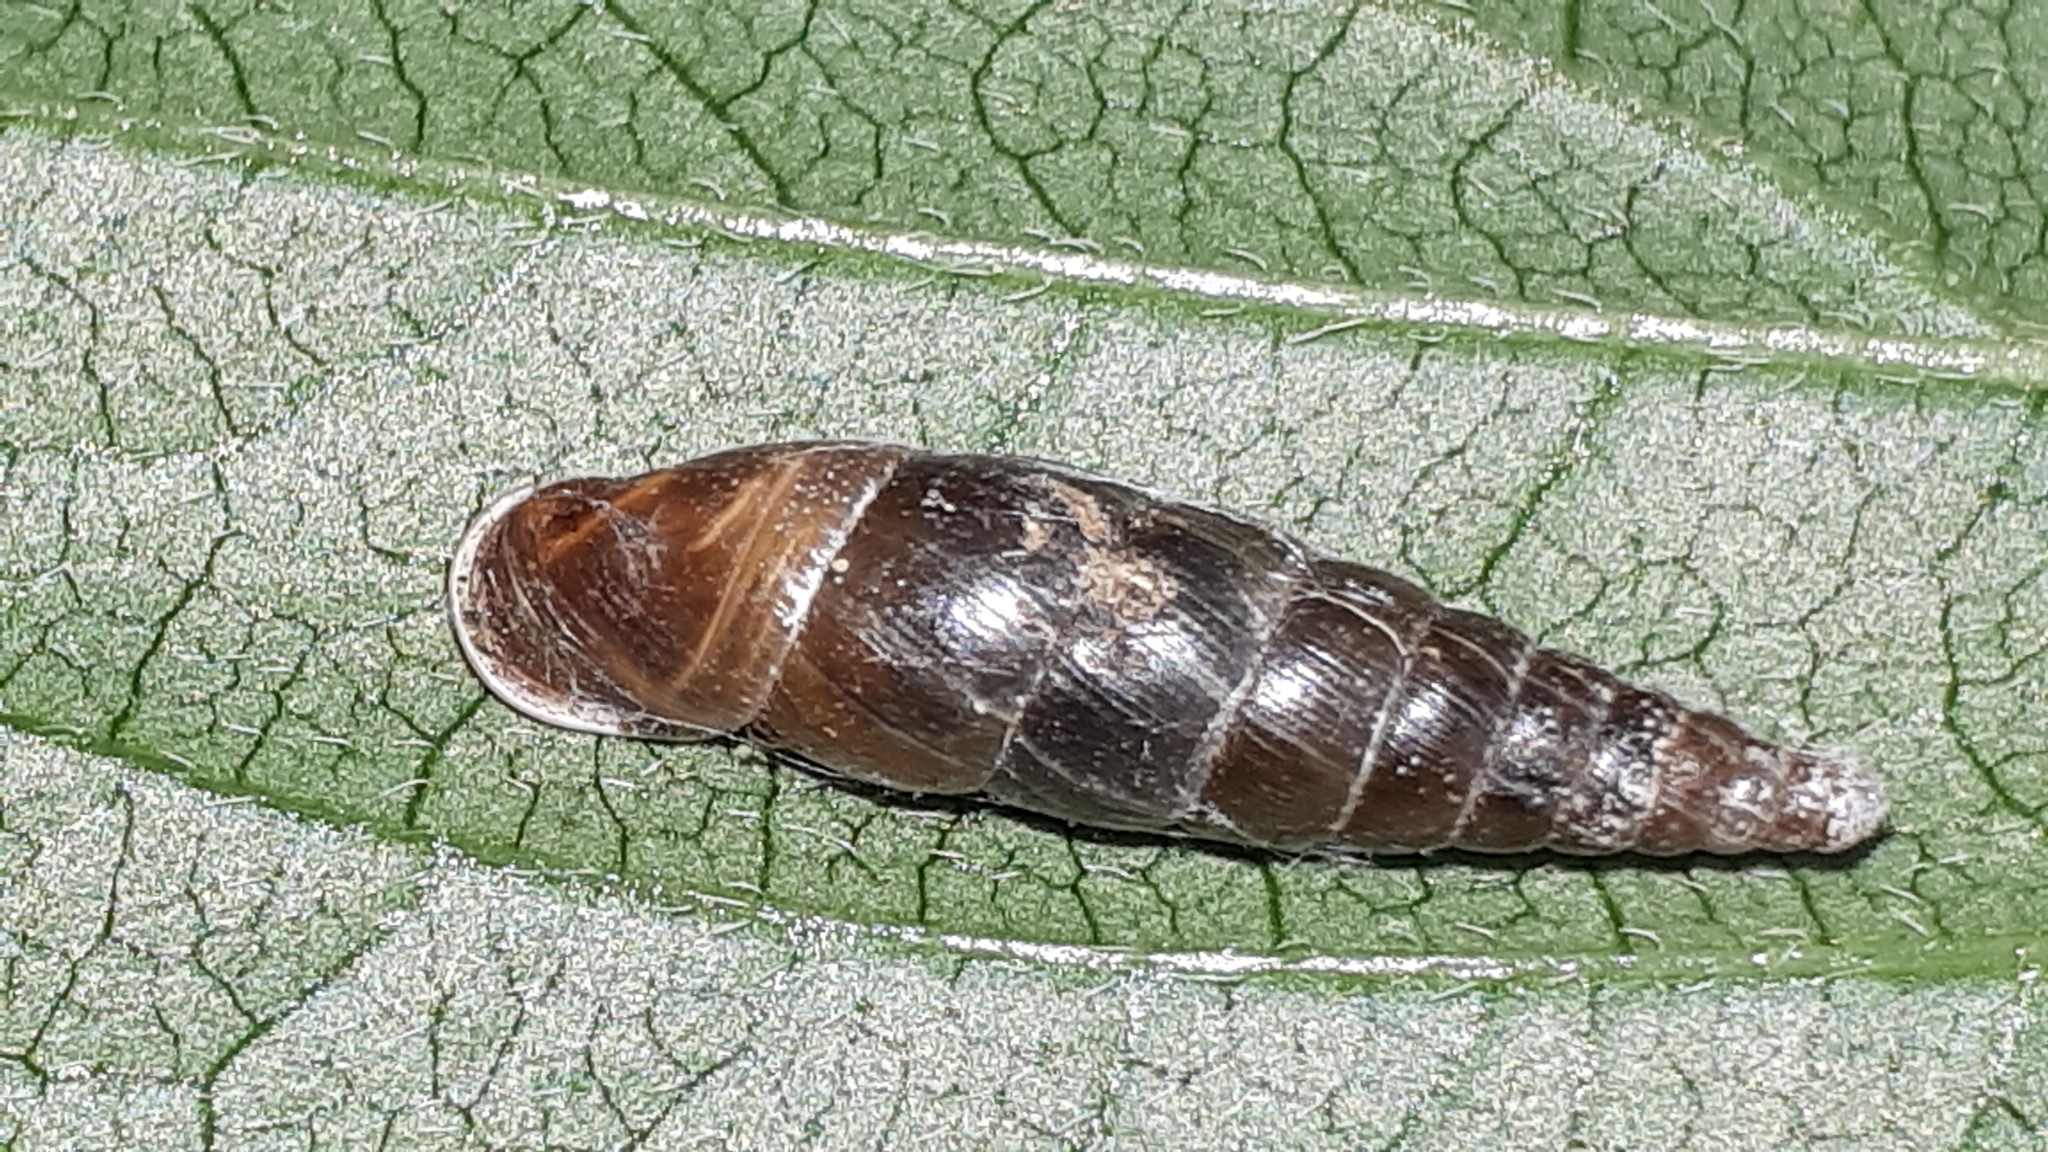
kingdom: Animalia
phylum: Mollusca
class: Gastropoda
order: Stylommatophora
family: Clausiliidae
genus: Cochlodina
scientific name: Cochlodina laminata
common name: Plaited door snail
